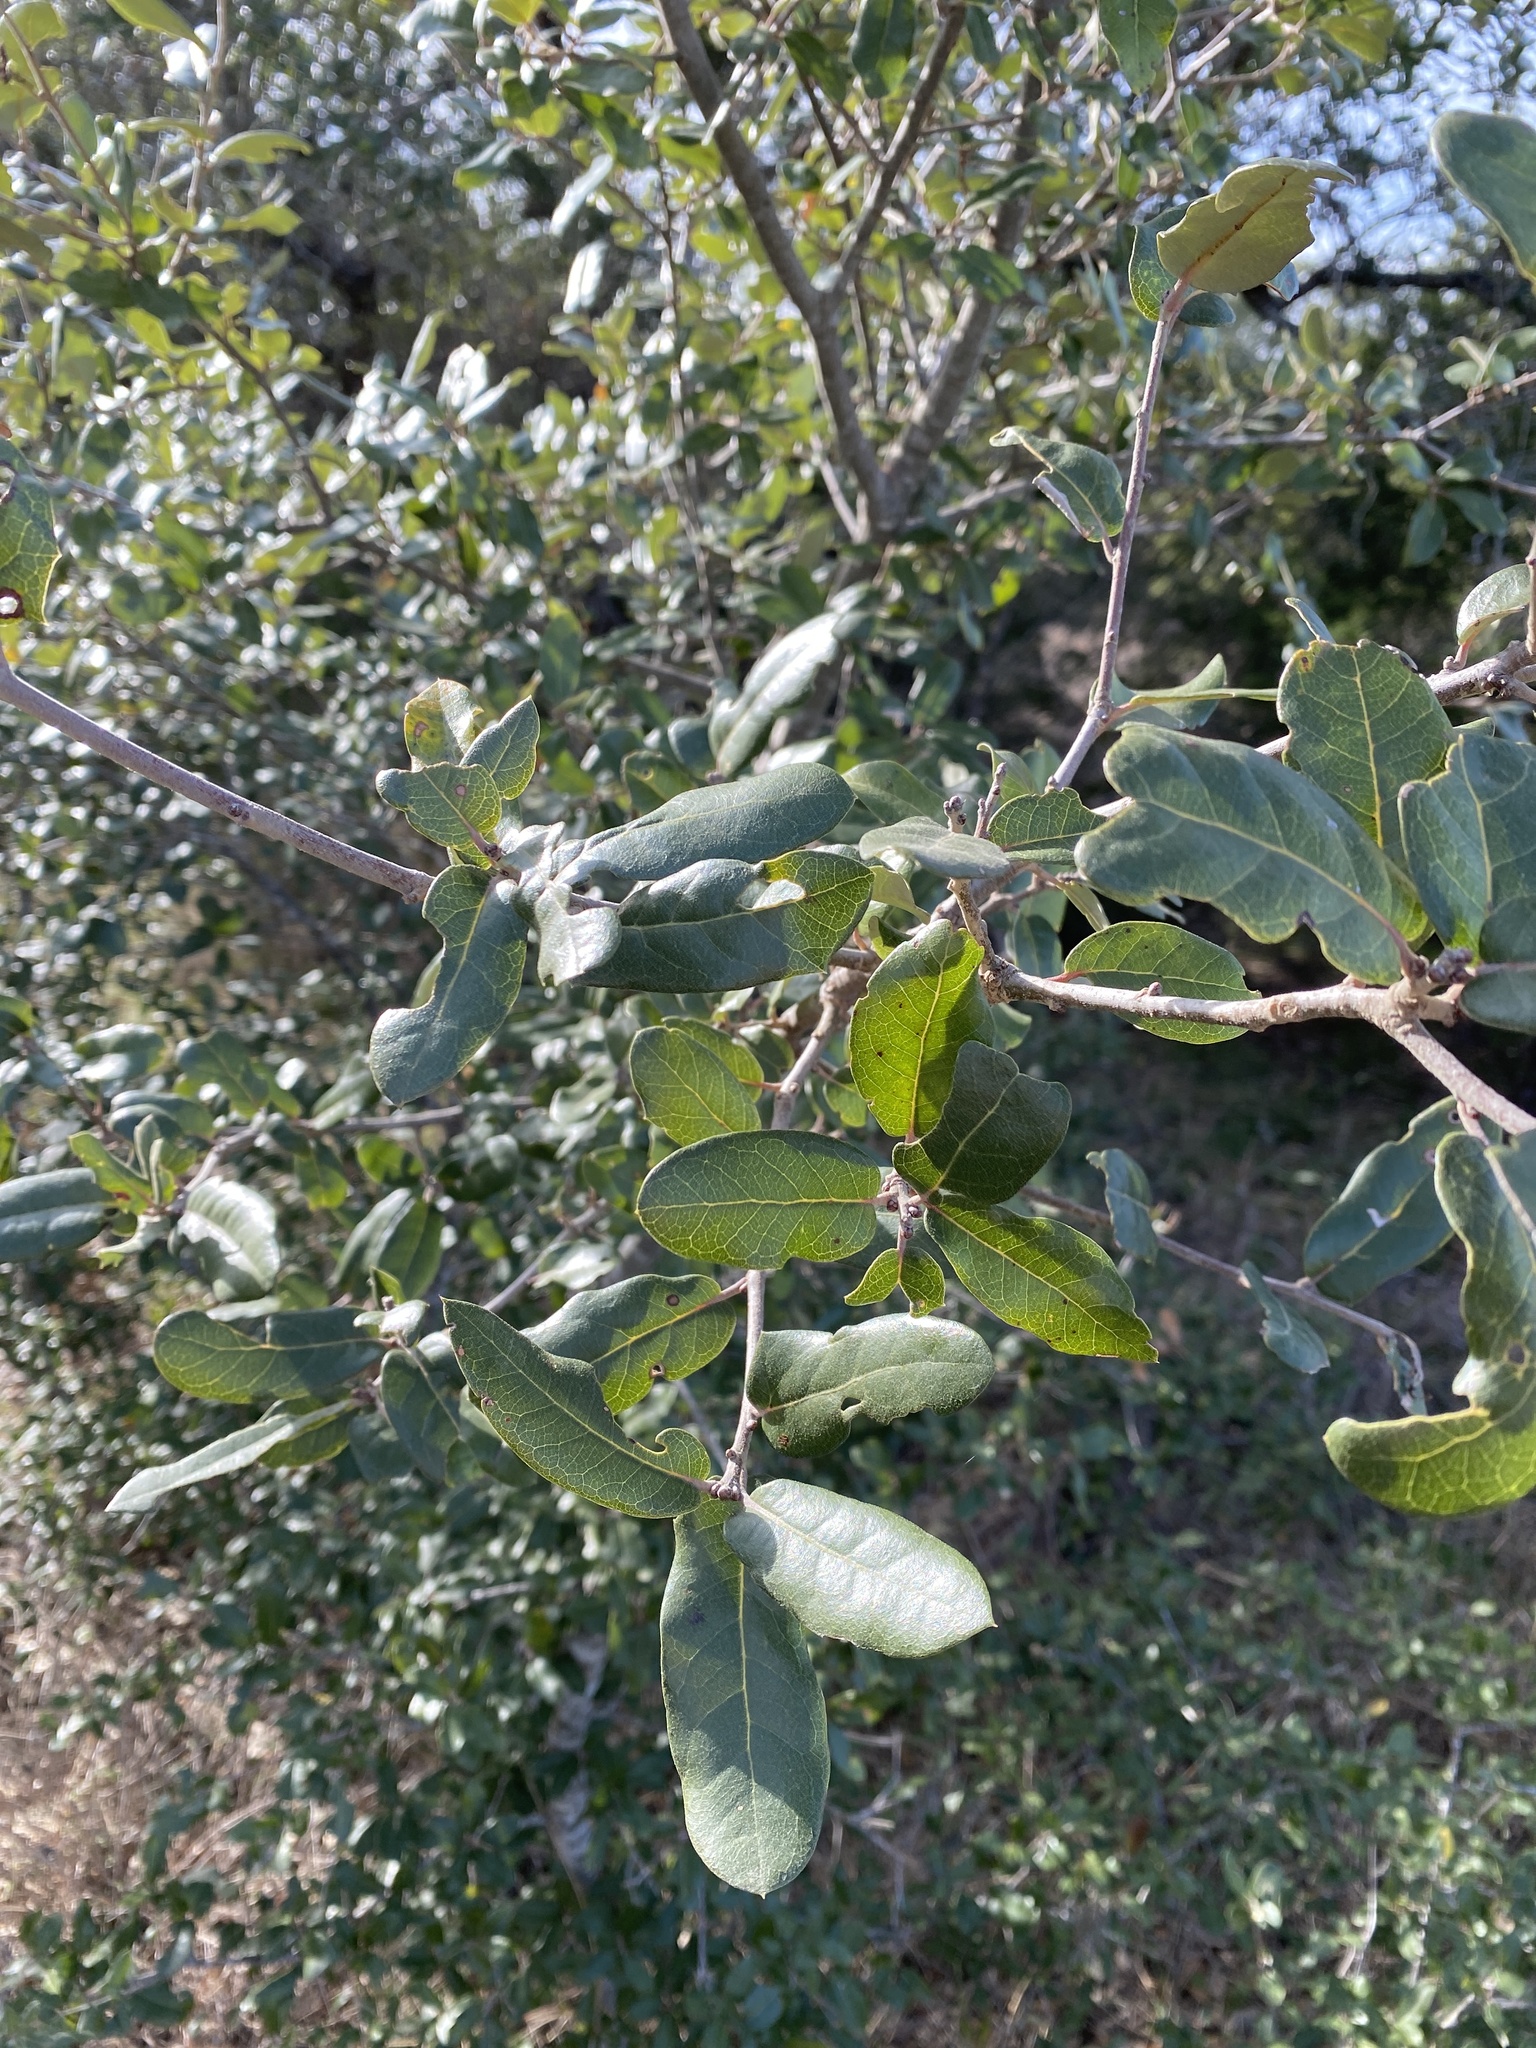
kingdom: Plantae
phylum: Tracheophyta
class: Magnoliopsida
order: Fagales
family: Fagaceae
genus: Quercus
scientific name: Quercus fusiformis
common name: Texas live oak
